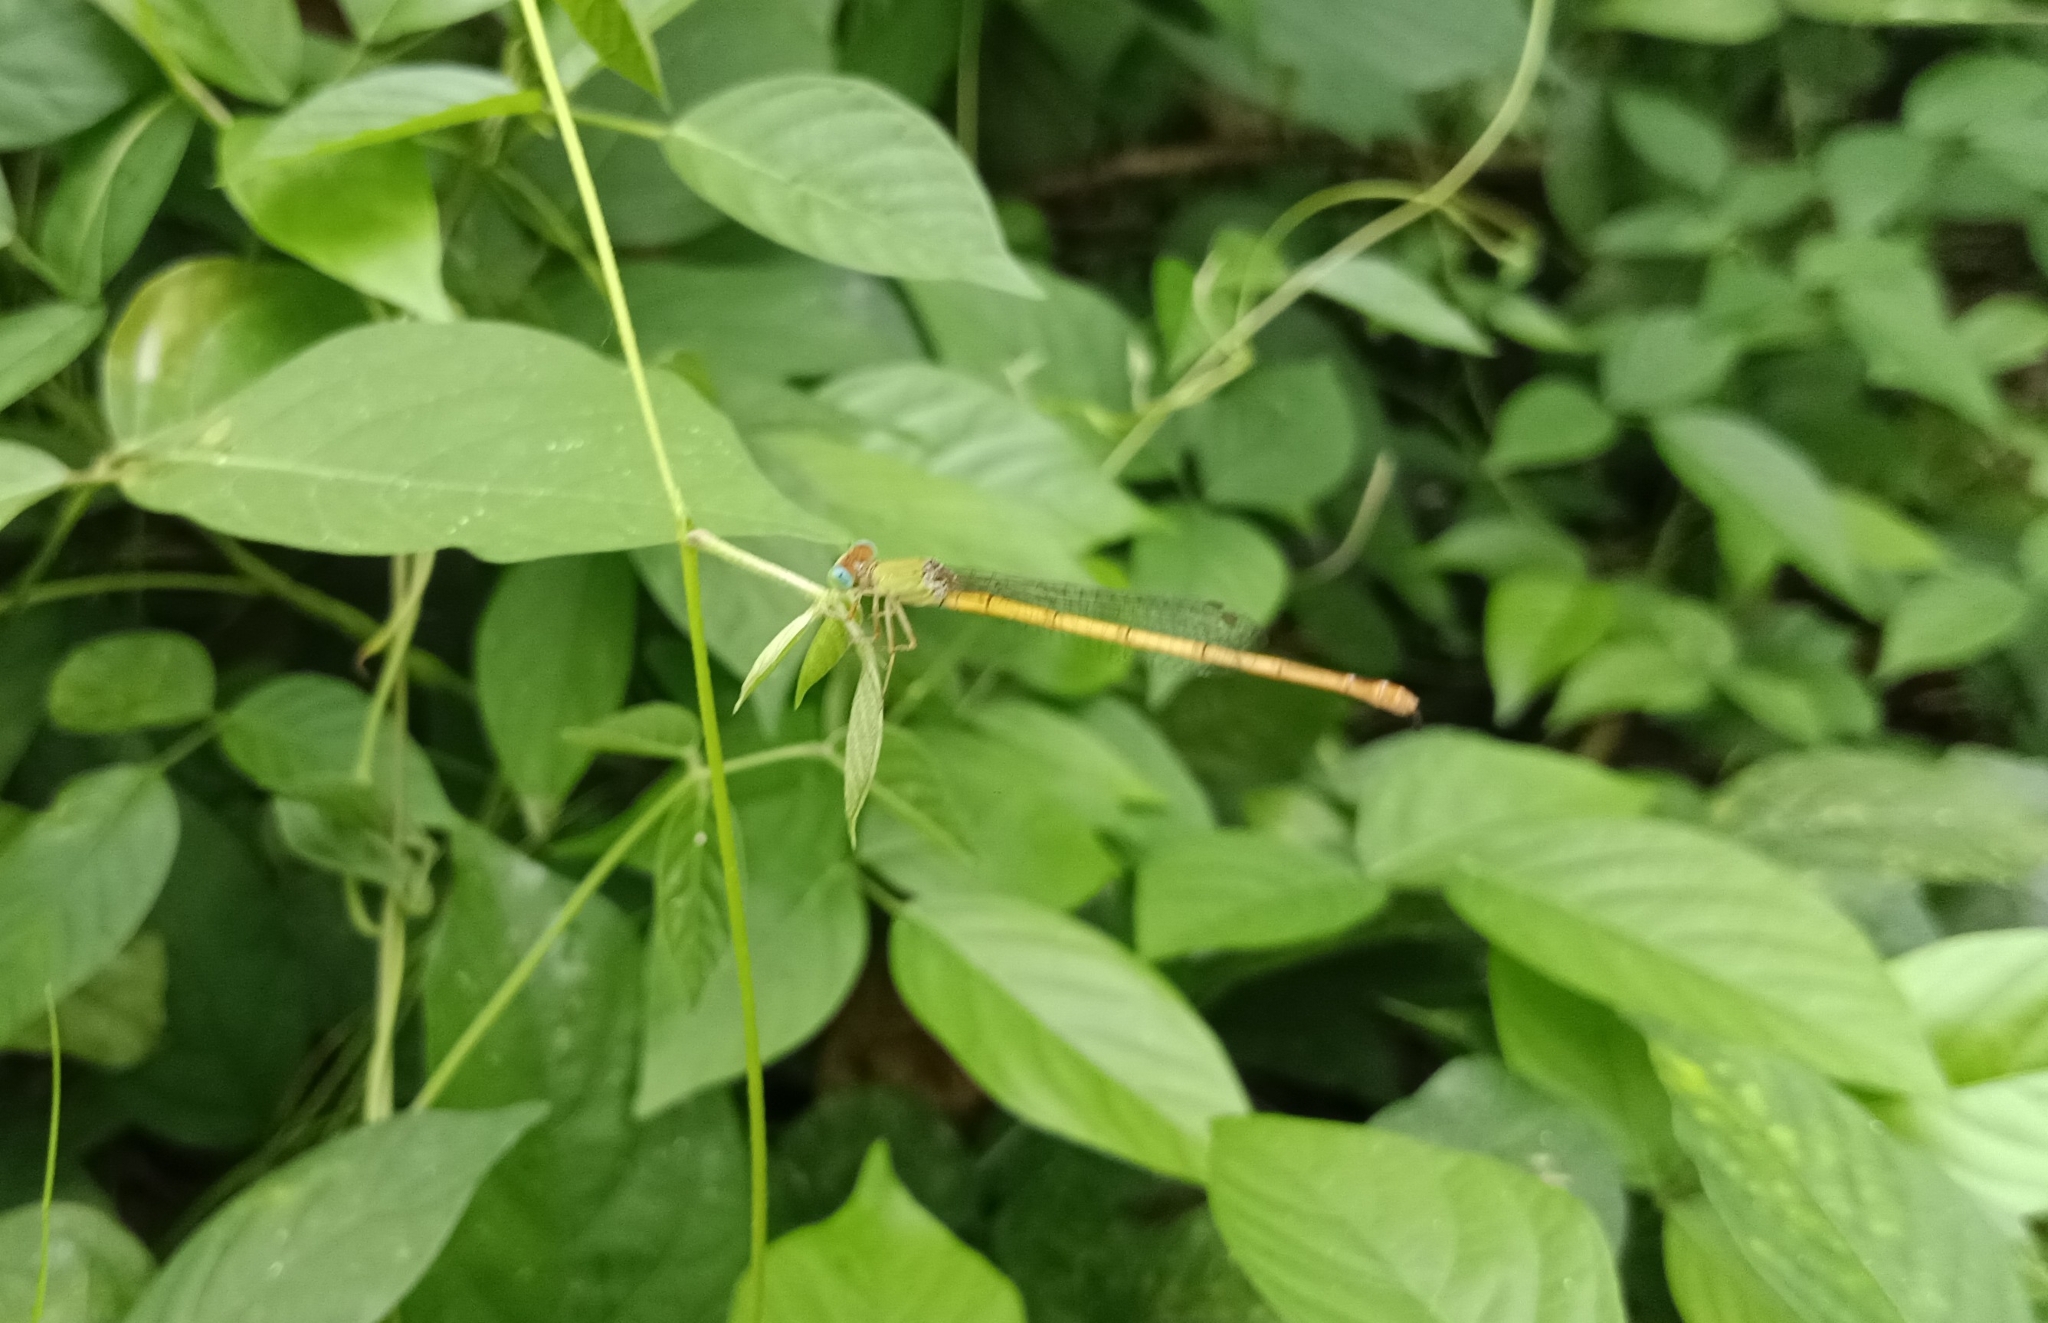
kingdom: Animalia
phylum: Arthropoda
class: Insecta
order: Odonata
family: Coenagrionidae
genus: Ceriagrion
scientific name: Ceriagrion coromandelianum
